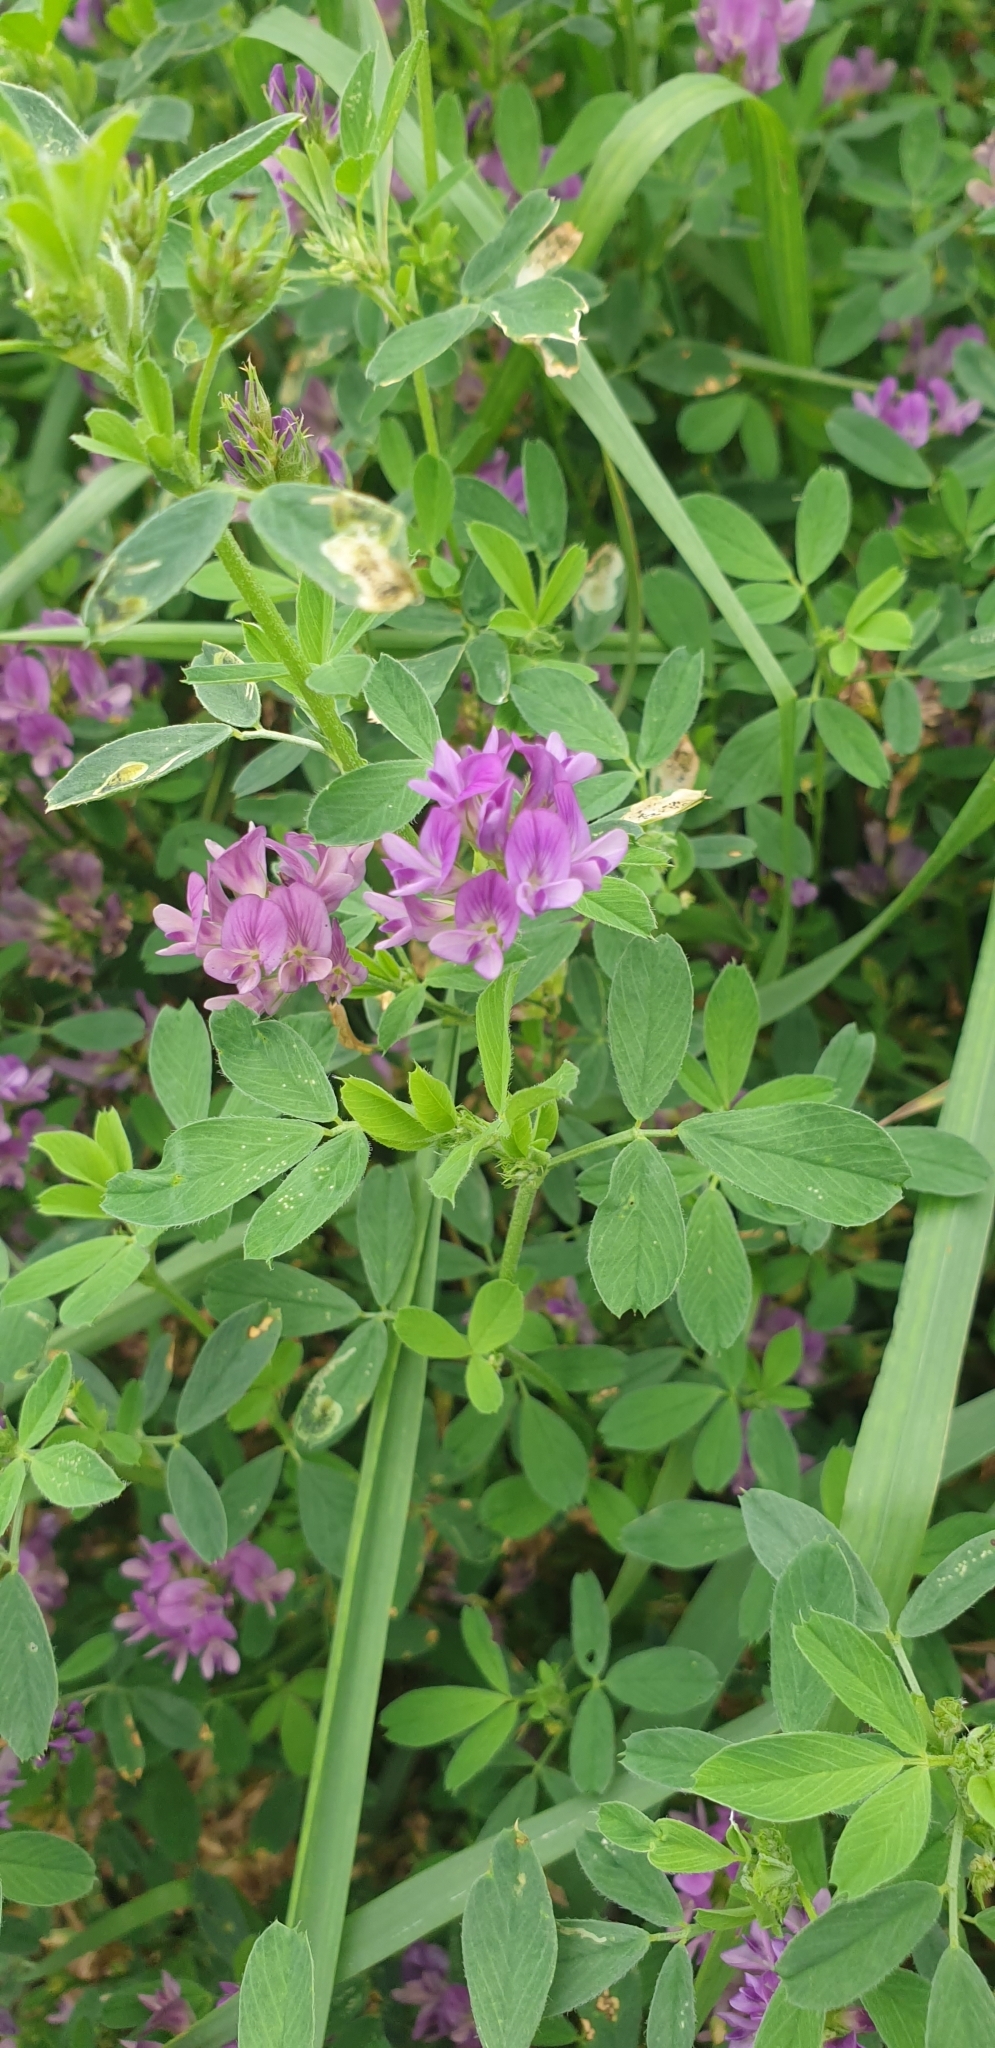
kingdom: Plantae
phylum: Tracheophyta
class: Magnoliopsida
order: Fabales
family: Fabaceae
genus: Medicago
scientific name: Medicago sativa
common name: Alfalfa
